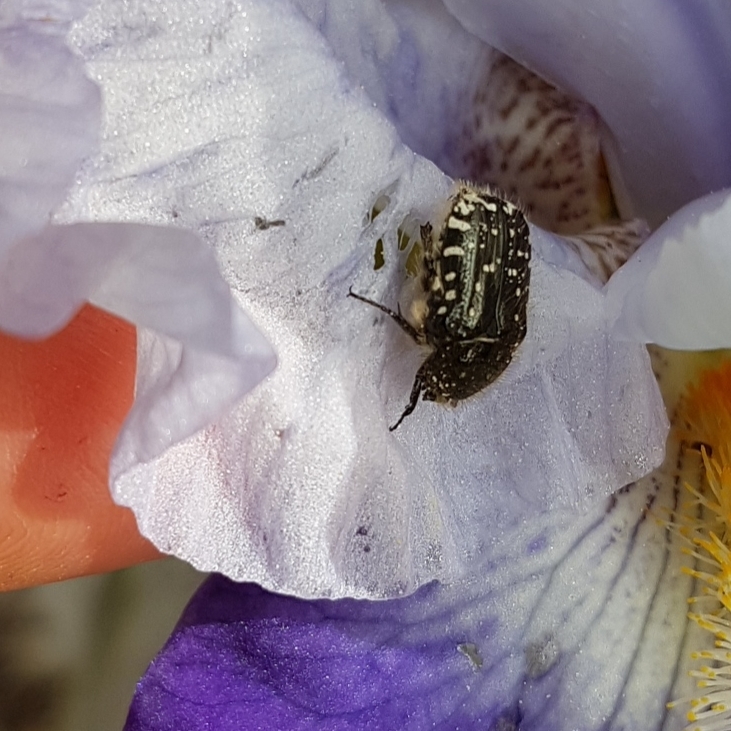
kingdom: Animalia
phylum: Arthropoda
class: Insecta
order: Coleoptera
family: Scarabaeidae
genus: Oxythyrea
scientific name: Oxythyrea funesta
